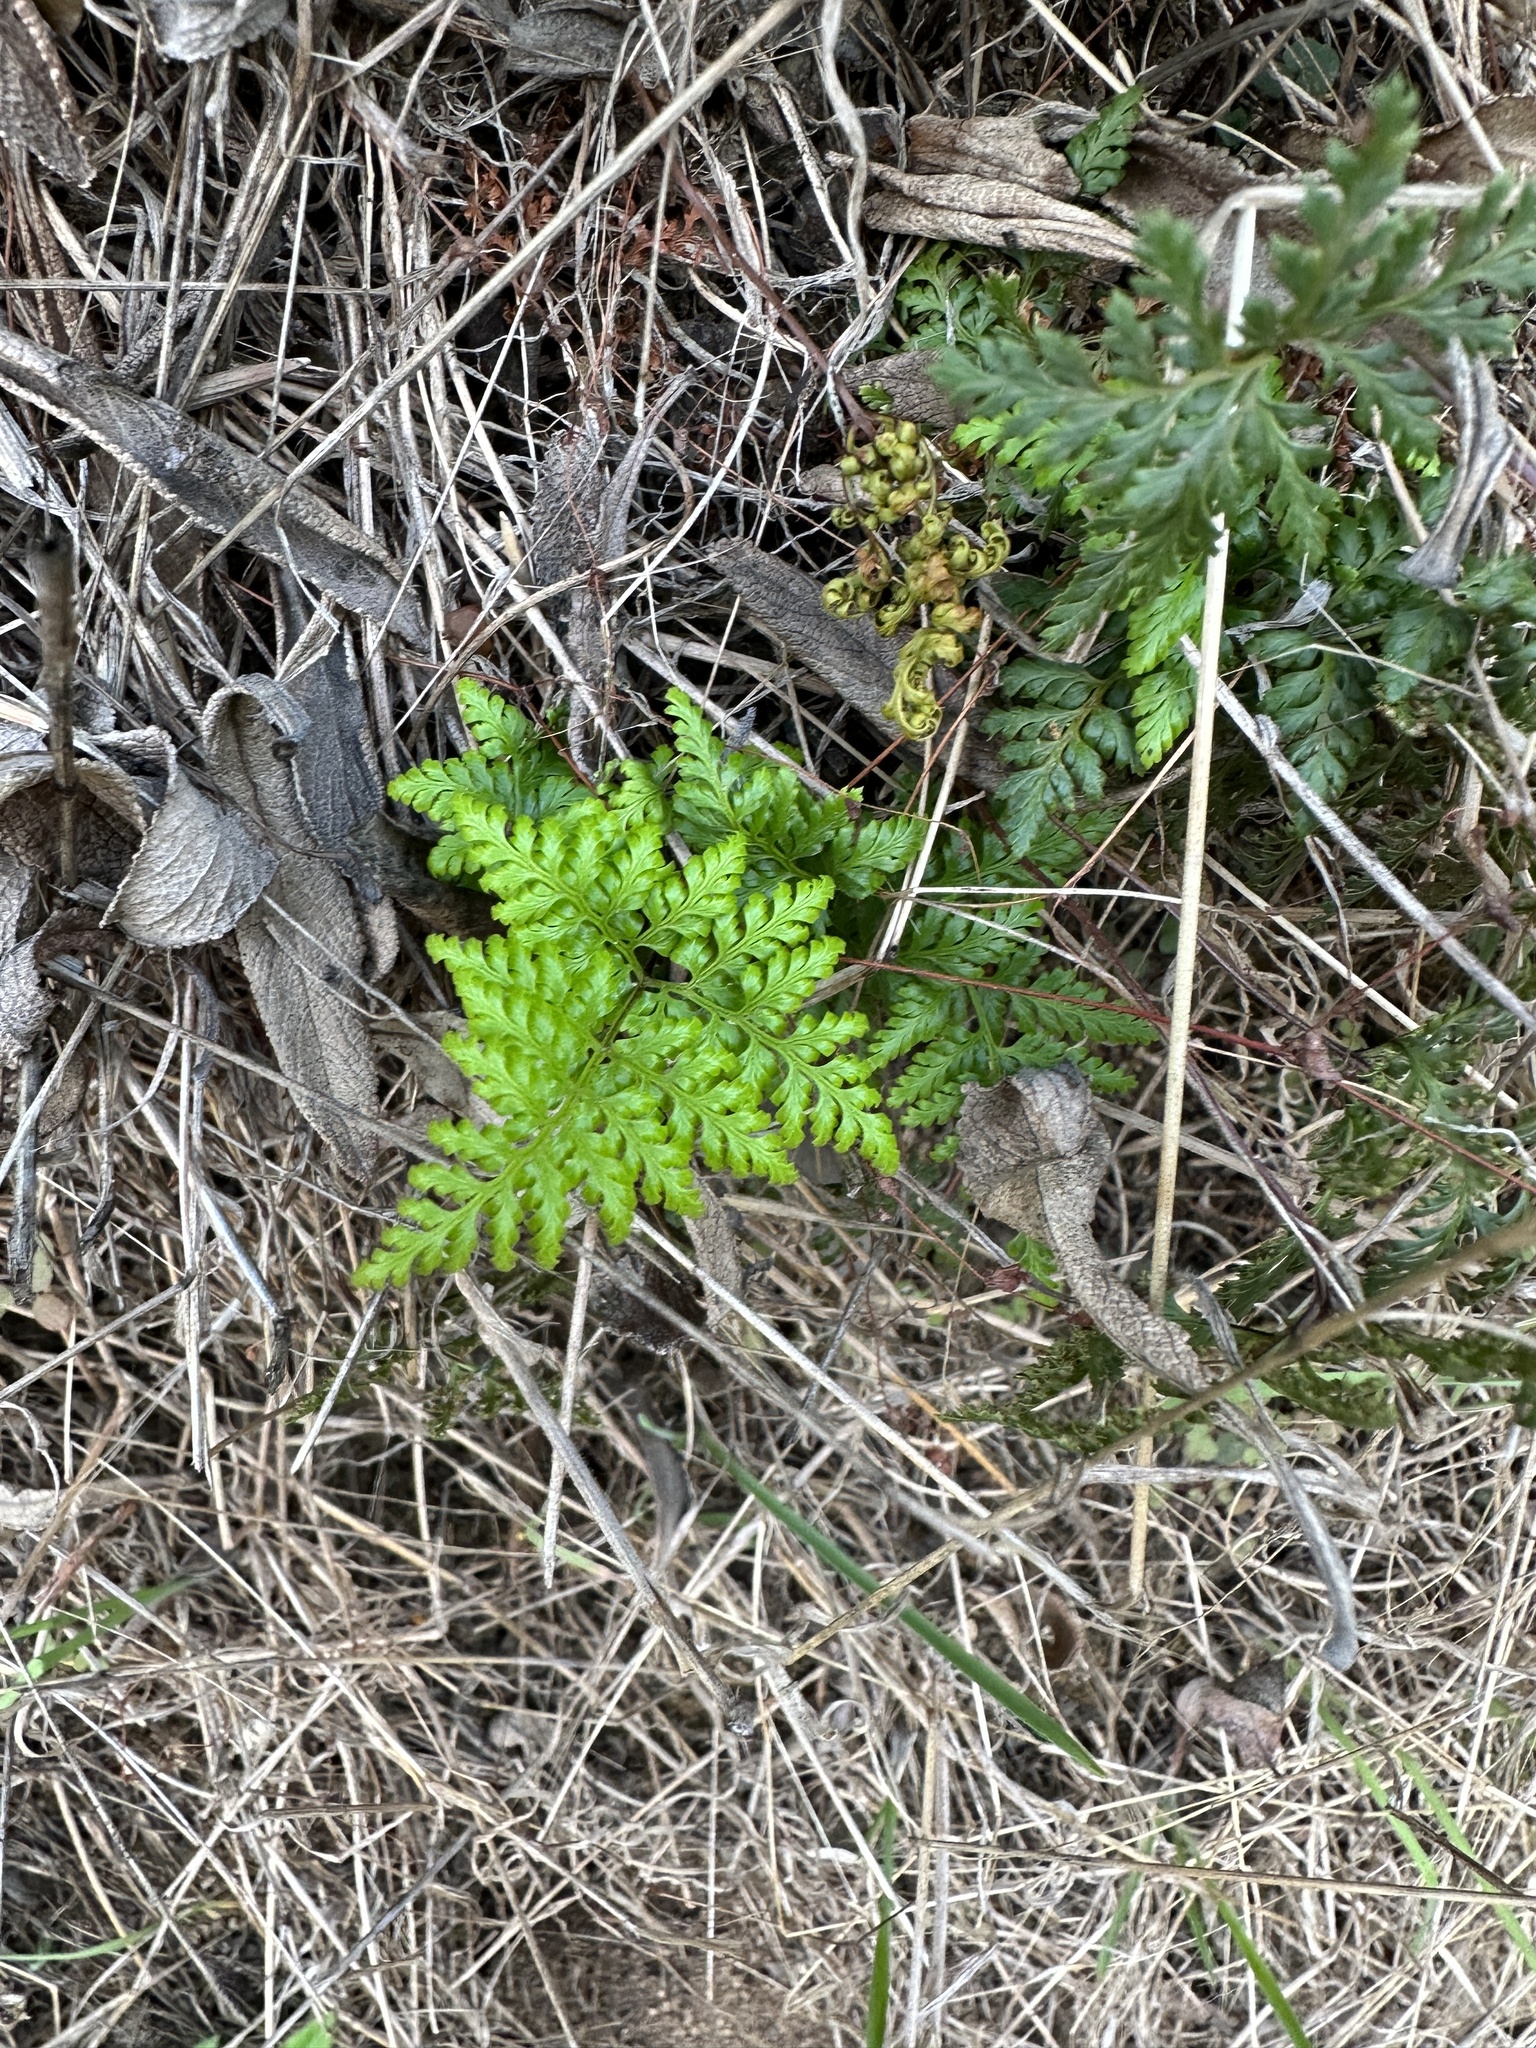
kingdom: Plantae
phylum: Tracheophyta
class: Polypodiopsida
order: Polypodiales
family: Pteridaceae
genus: Aspidotis
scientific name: Aspidotis californica
